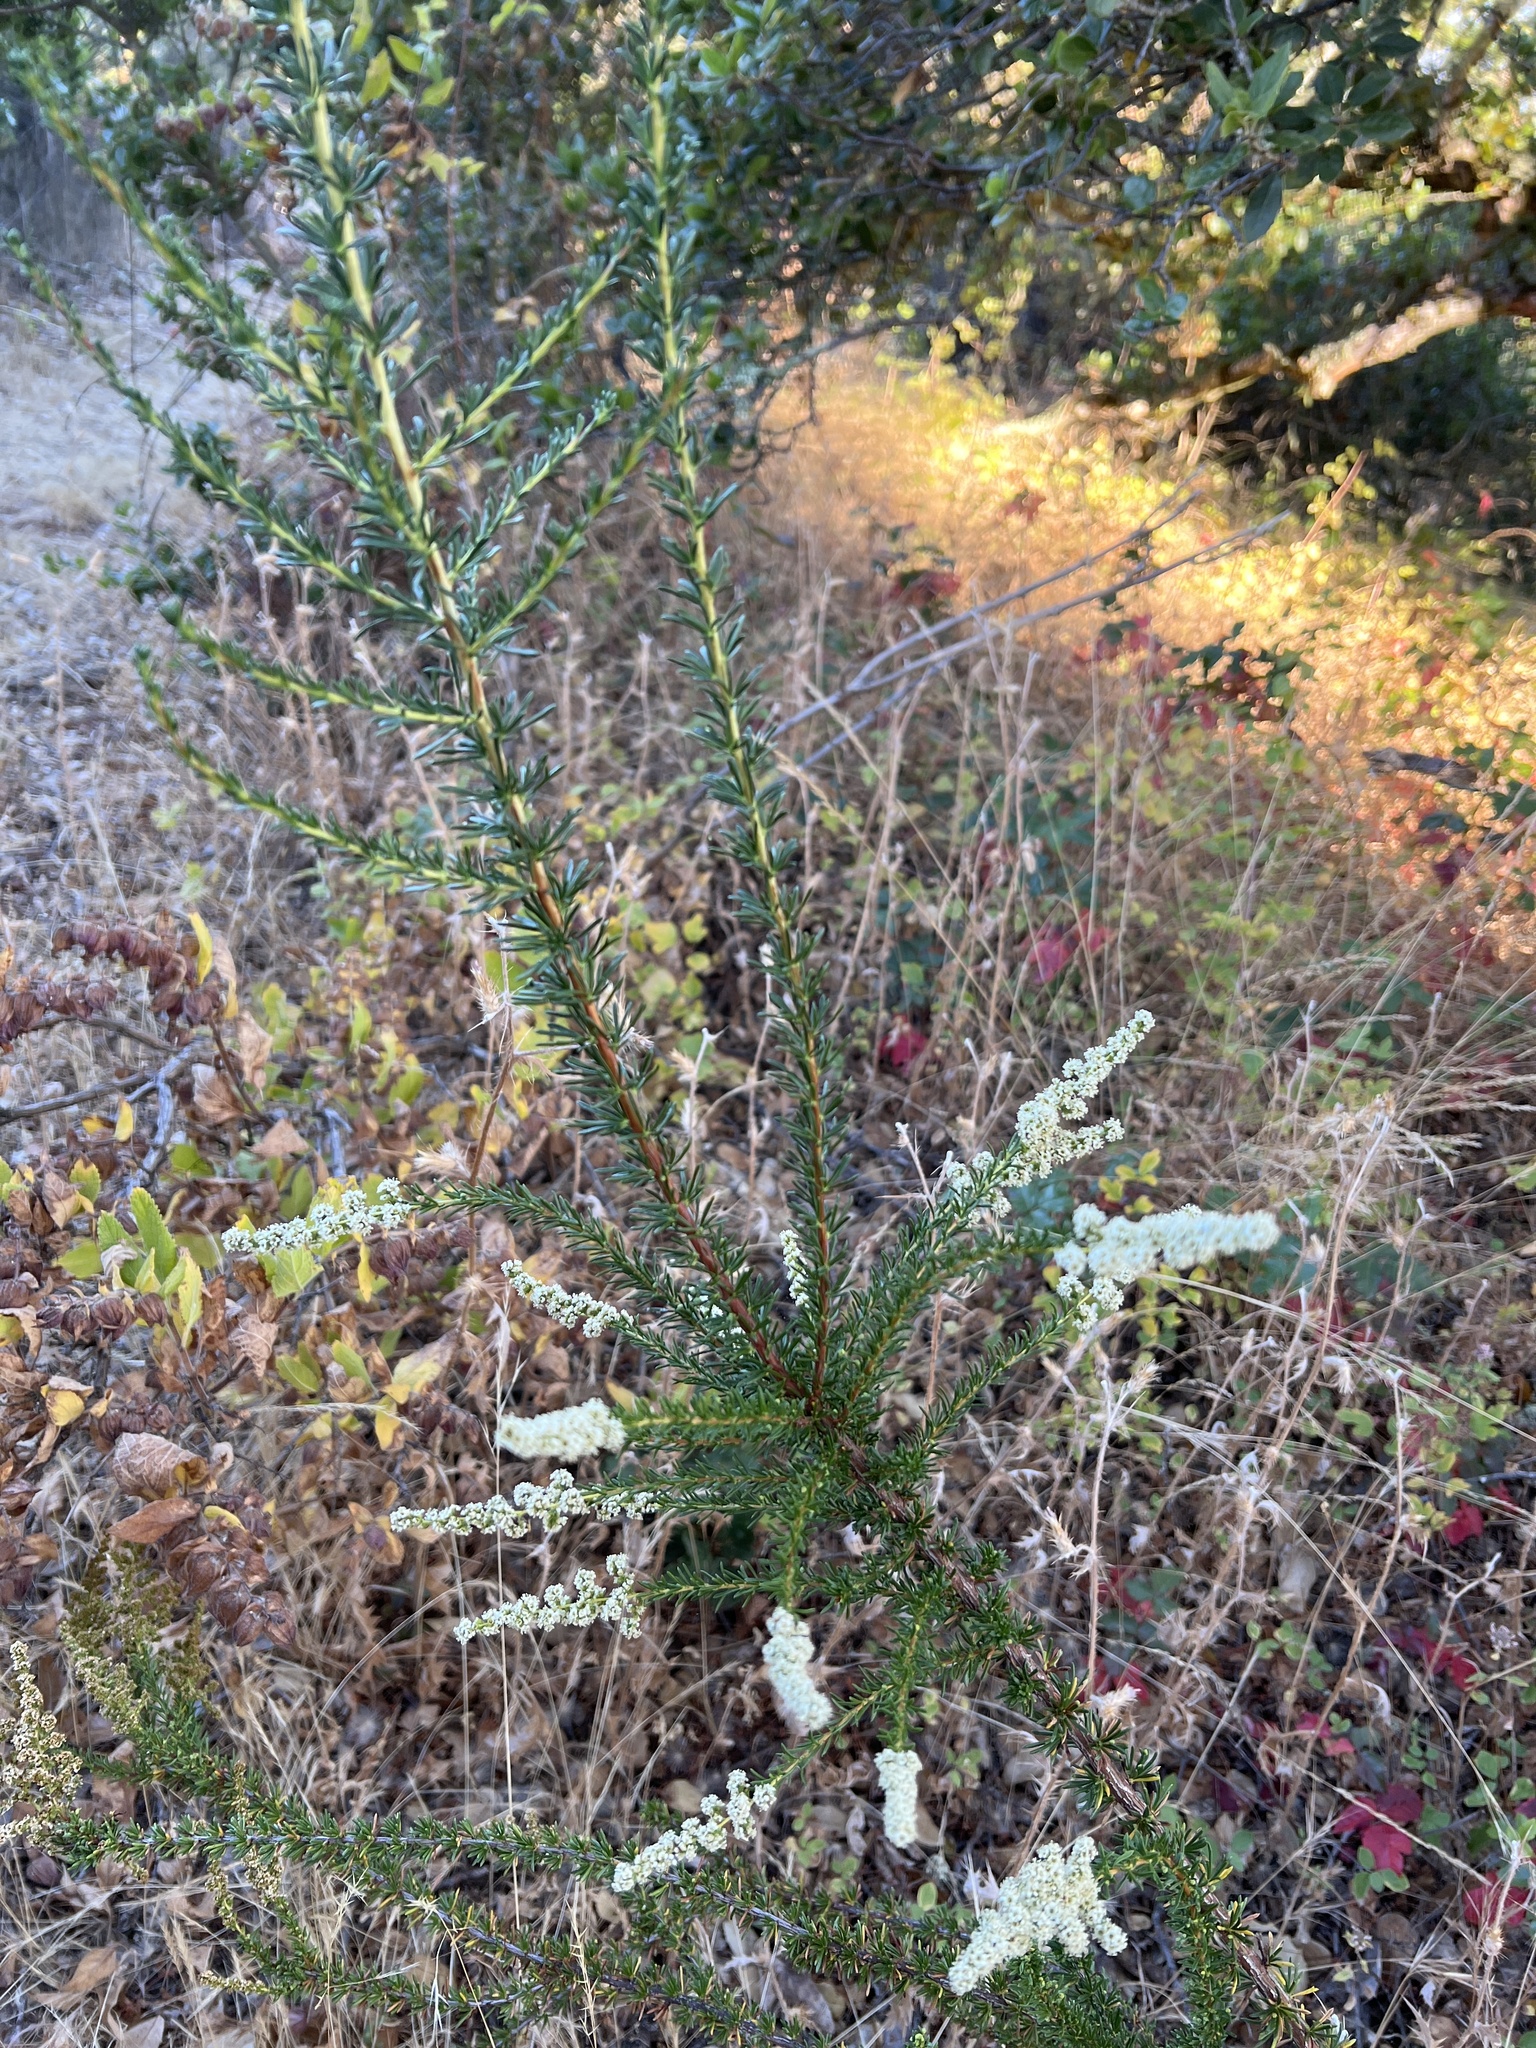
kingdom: Plantae
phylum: Tracheophyta
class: Magnoliopsida
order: Rosales
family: Rosaceae
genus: Adenostoma
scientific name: Adenostoma fasciculatum
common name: Chamise
